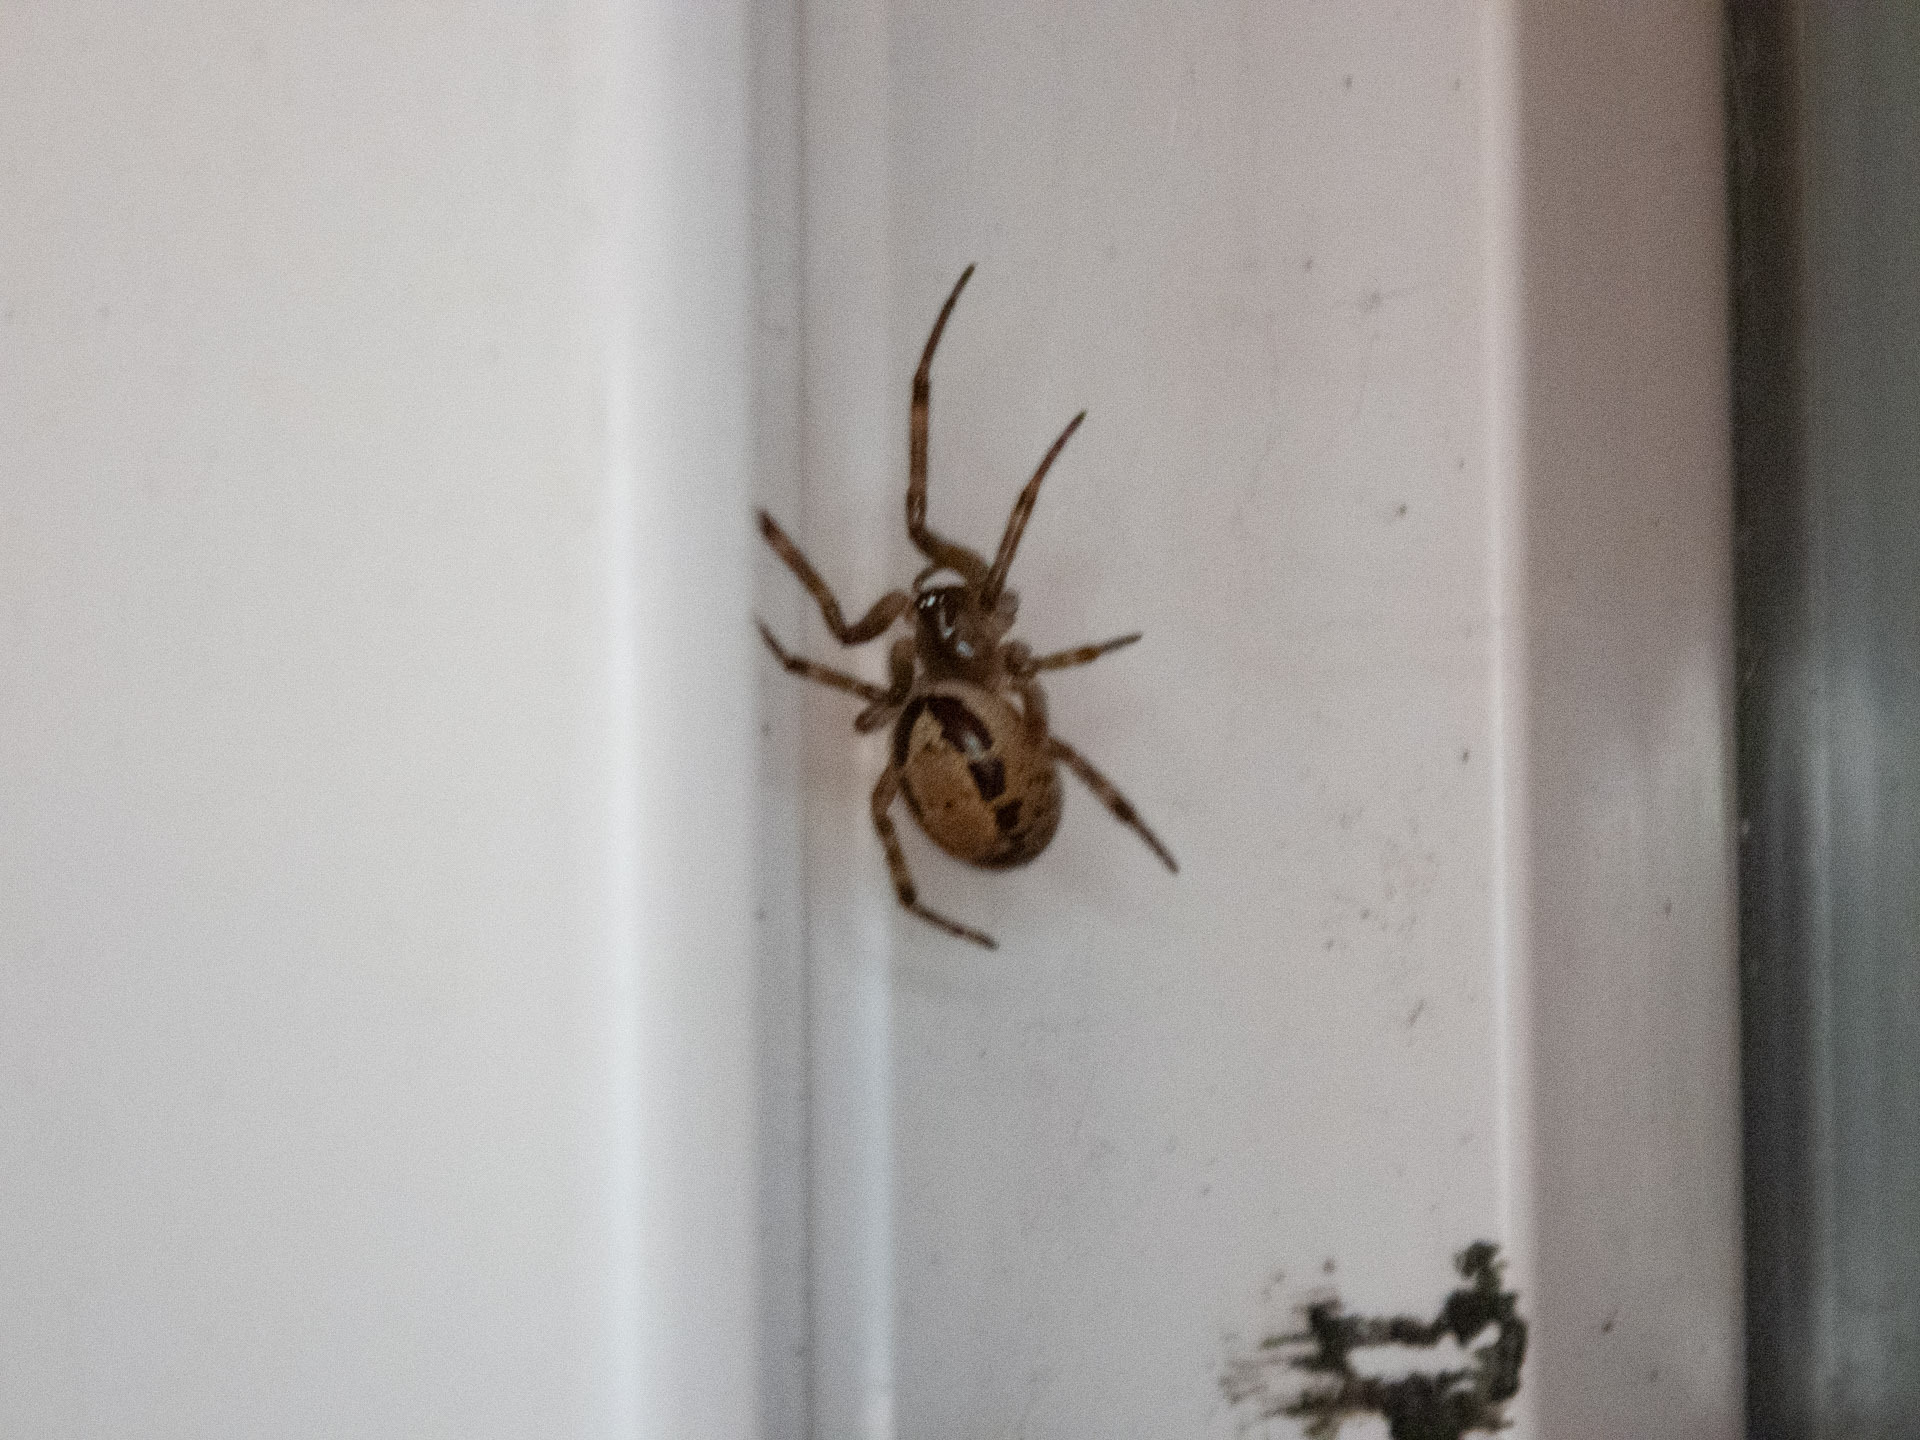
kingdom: Animalia
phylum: Arthropoda
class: Arachnida
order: Araneae
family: Theridiidae
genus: Steatoda
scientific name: Steatoda nobilis
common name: Cobweb weaver
